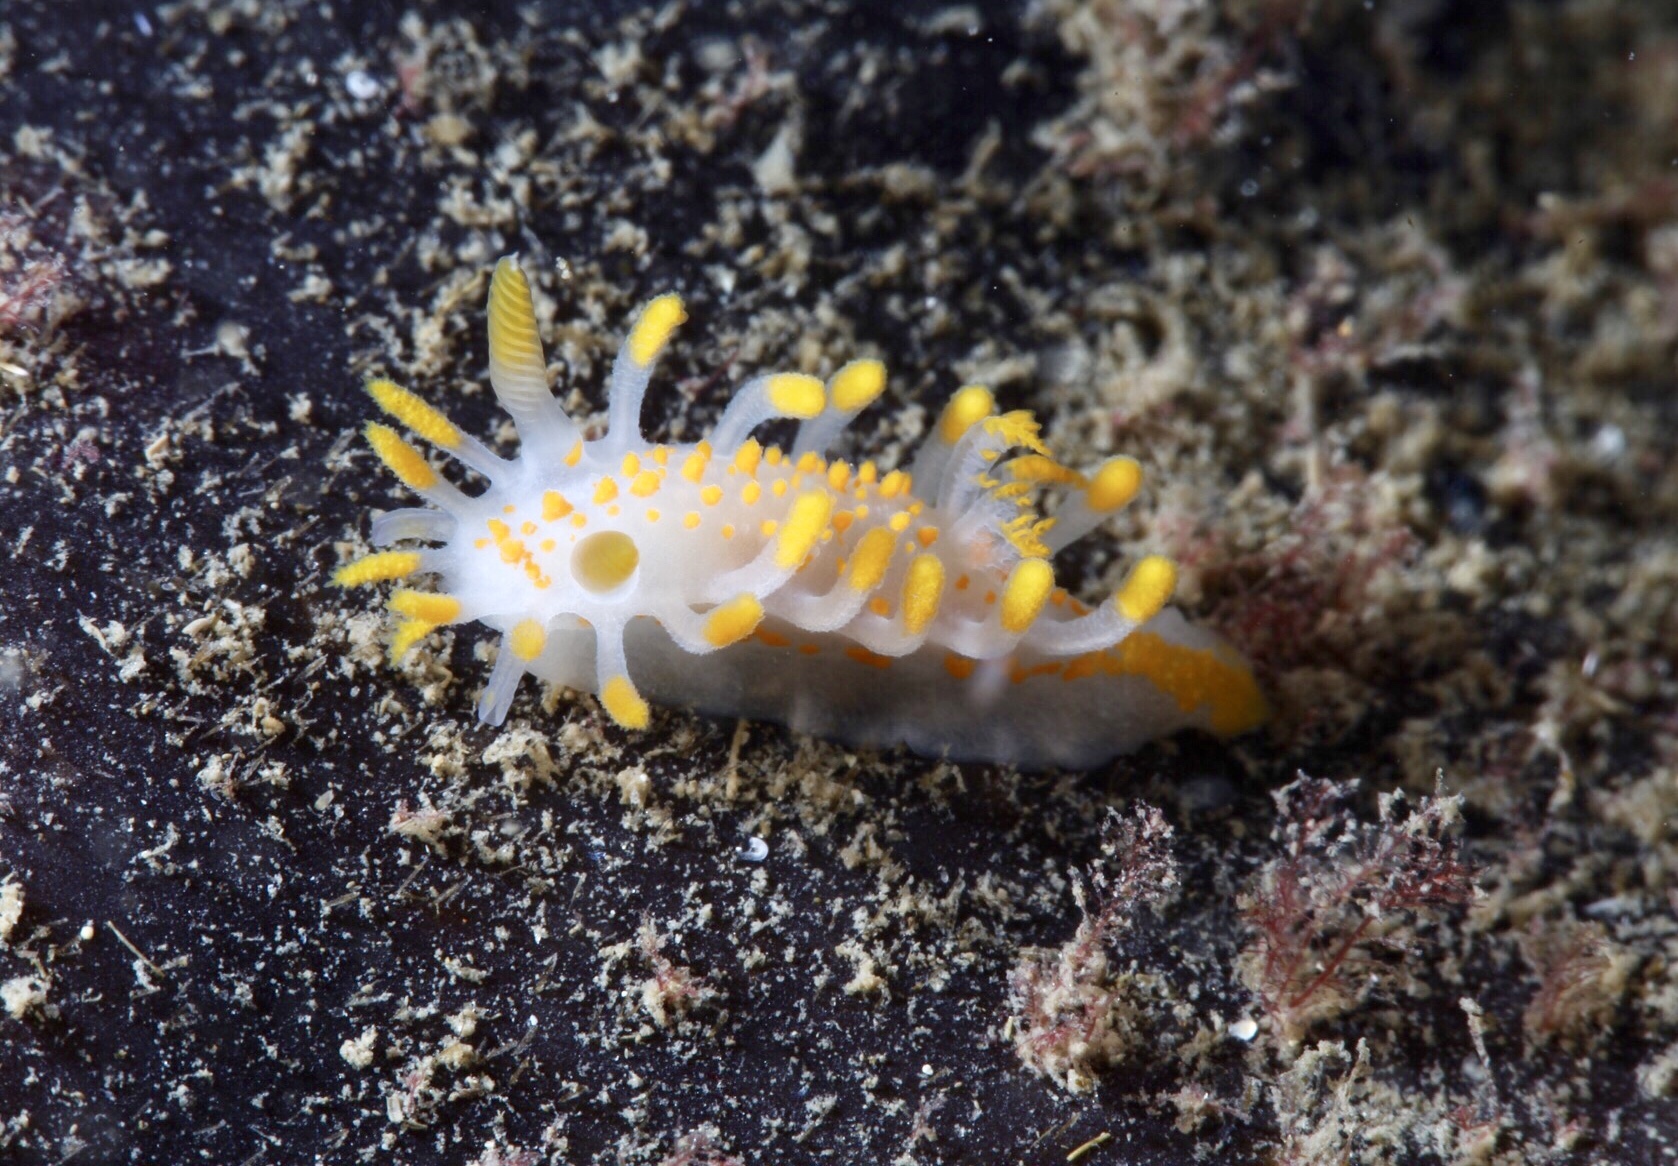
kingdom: Animalia
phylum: Mollusca
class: Gastropoda
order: Nudibranchia
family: Polyceridae
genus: Limacia
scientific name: Limacia clavigera
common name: Orange-clubbed sea slug
